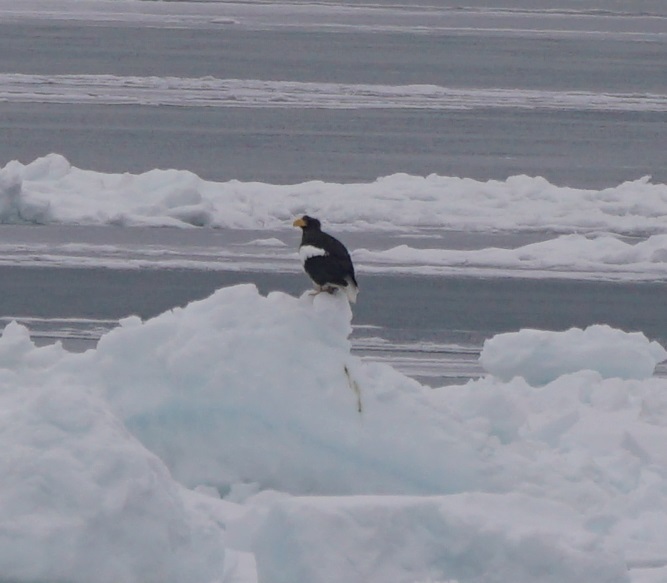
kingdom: Animalia
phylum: Chordata
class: Aves
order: Accipitriformes
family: Accipitridae
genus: Haliaeetus
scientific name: Haliaeetus pelagicus
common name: Steller's sea eagle
